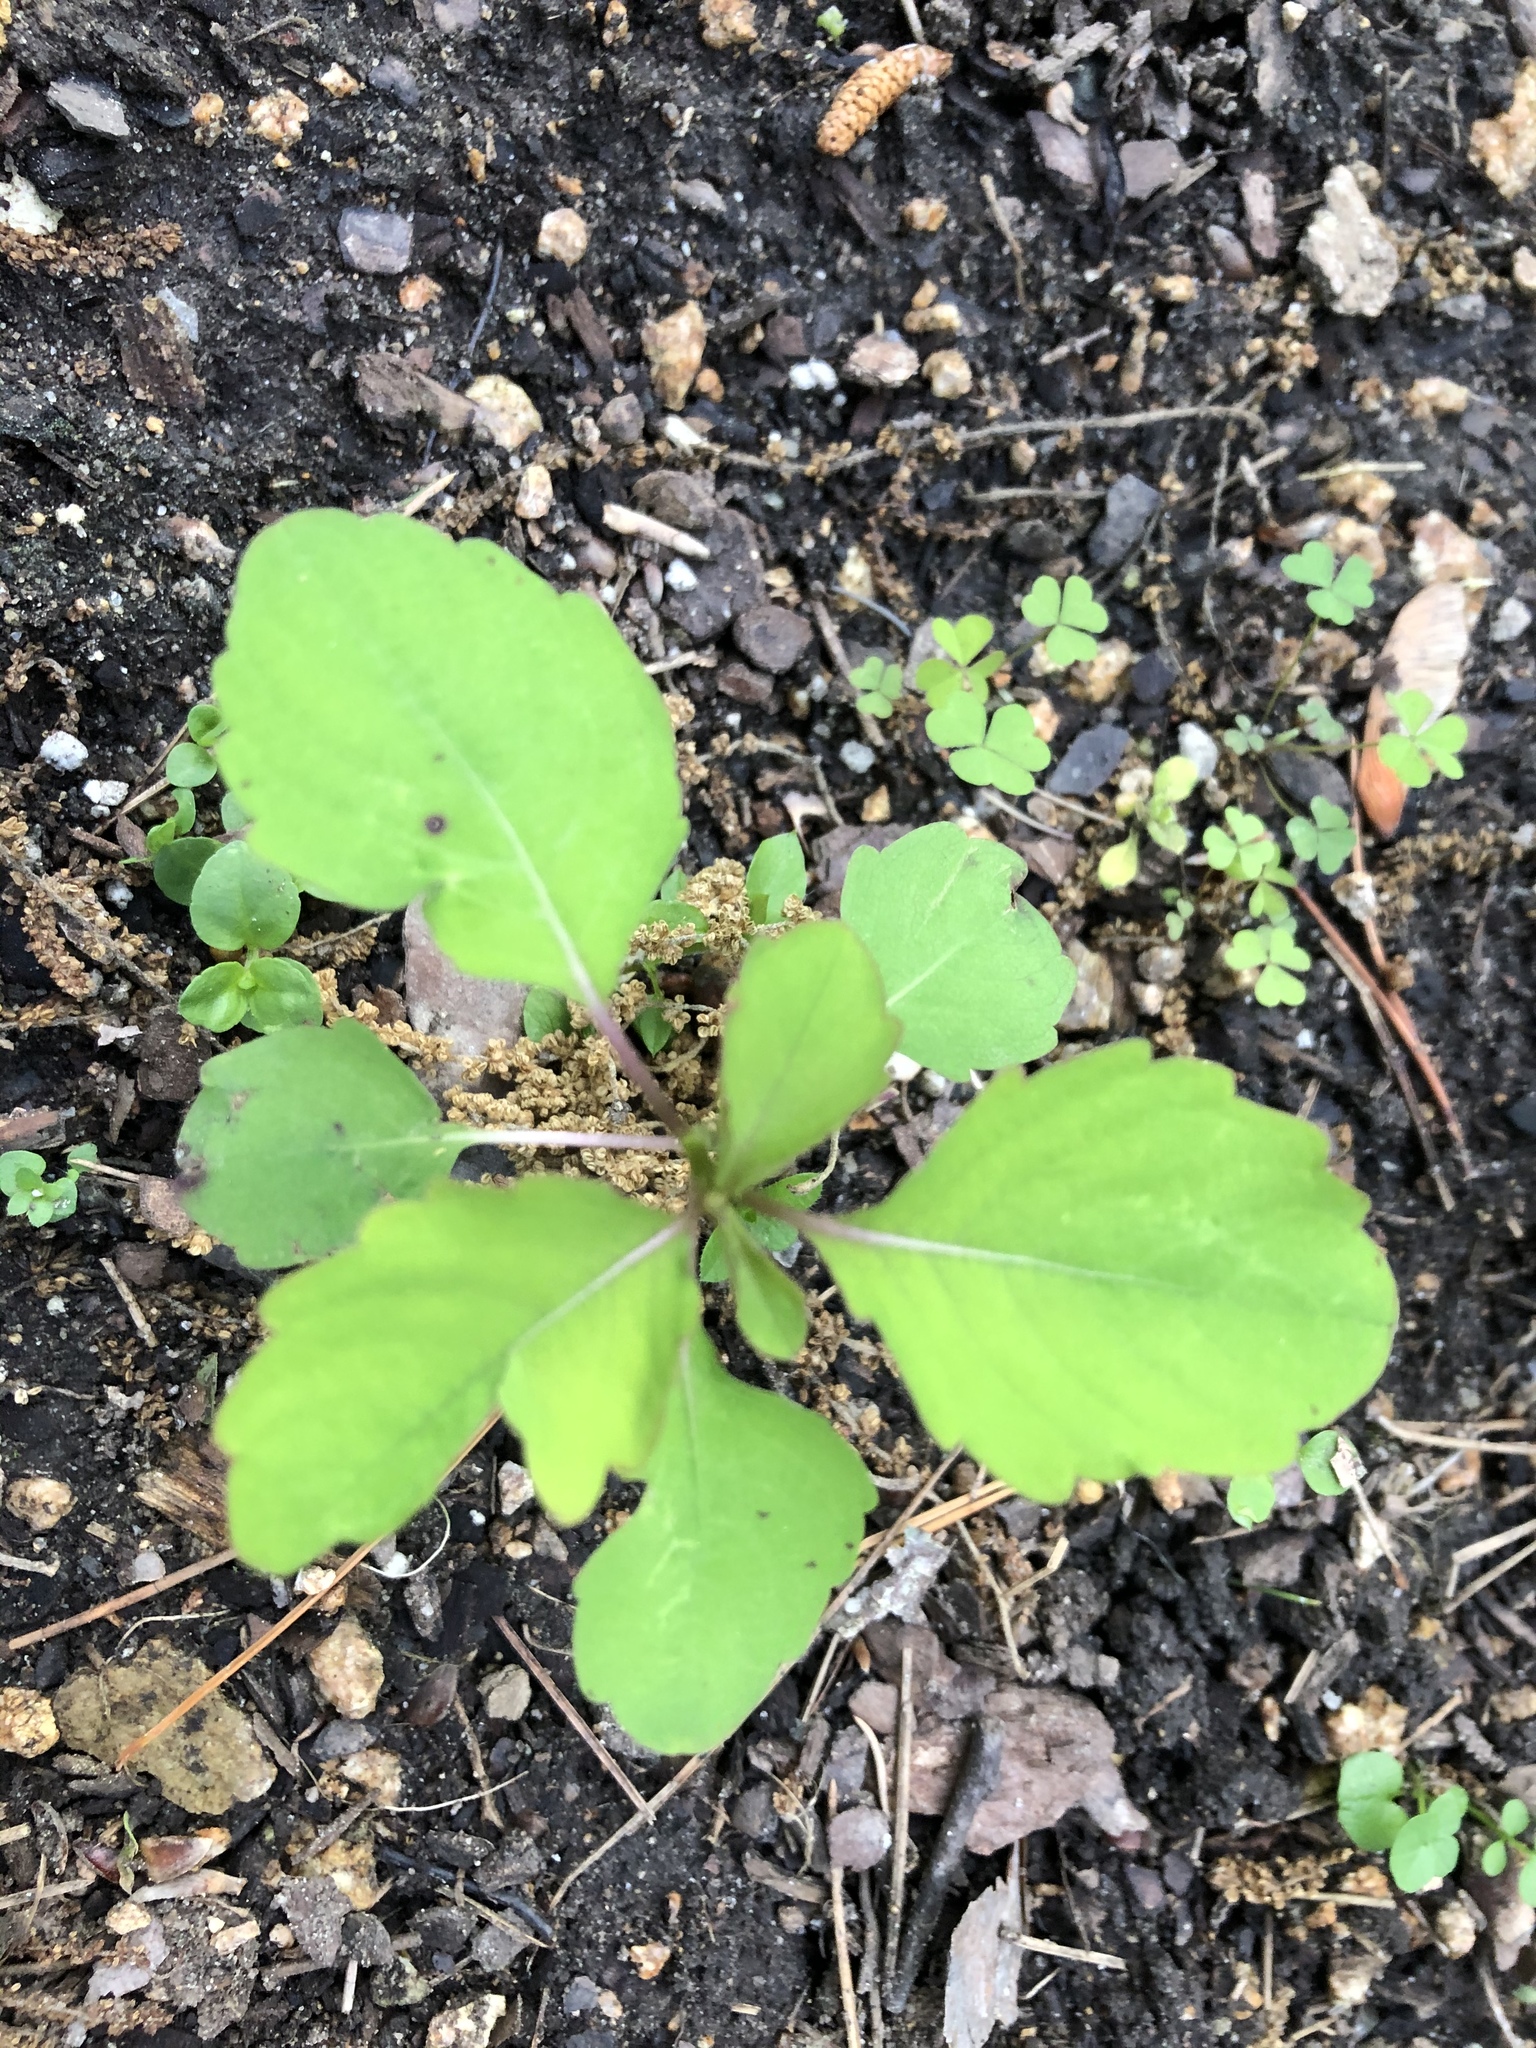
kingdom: Plantae
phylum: Tracheophyta
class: Magnoliopsida
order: Ericales
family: Balsaminaceae
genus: Impatiens
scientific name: Impatiens capensis
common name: Orange balsam
